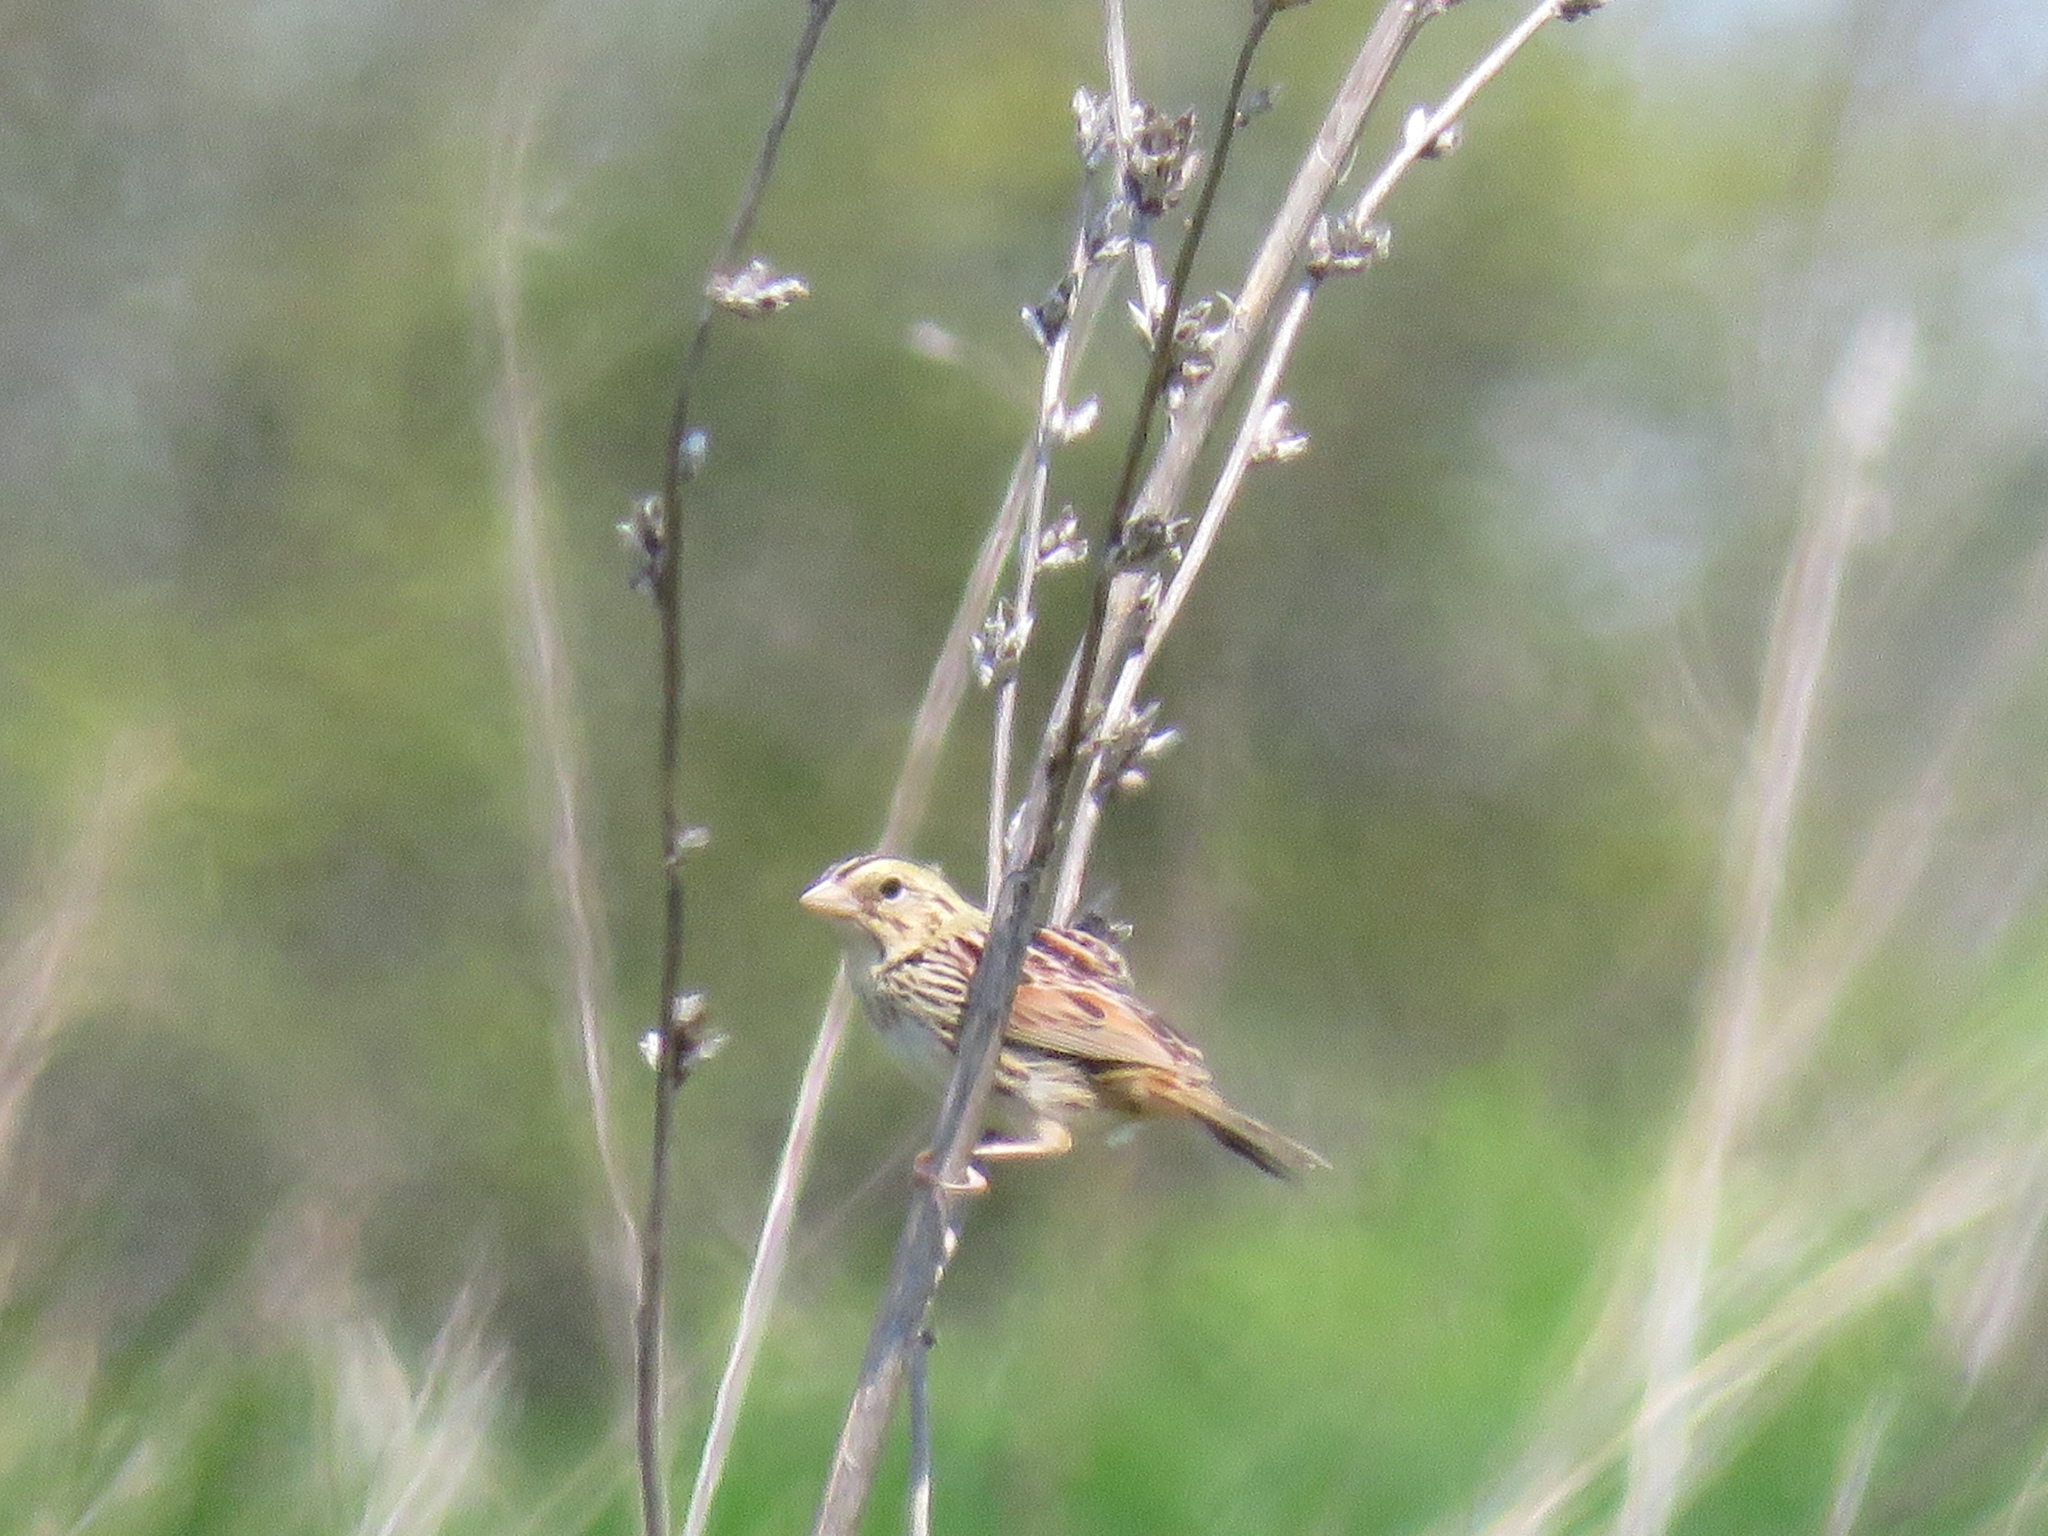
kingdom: Animalia
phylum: Chordata
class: Aves
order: Passeriformes
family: Passerellidae
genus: Centronyx
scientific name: Centronyx henslowii
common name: Henslow's sparrow
